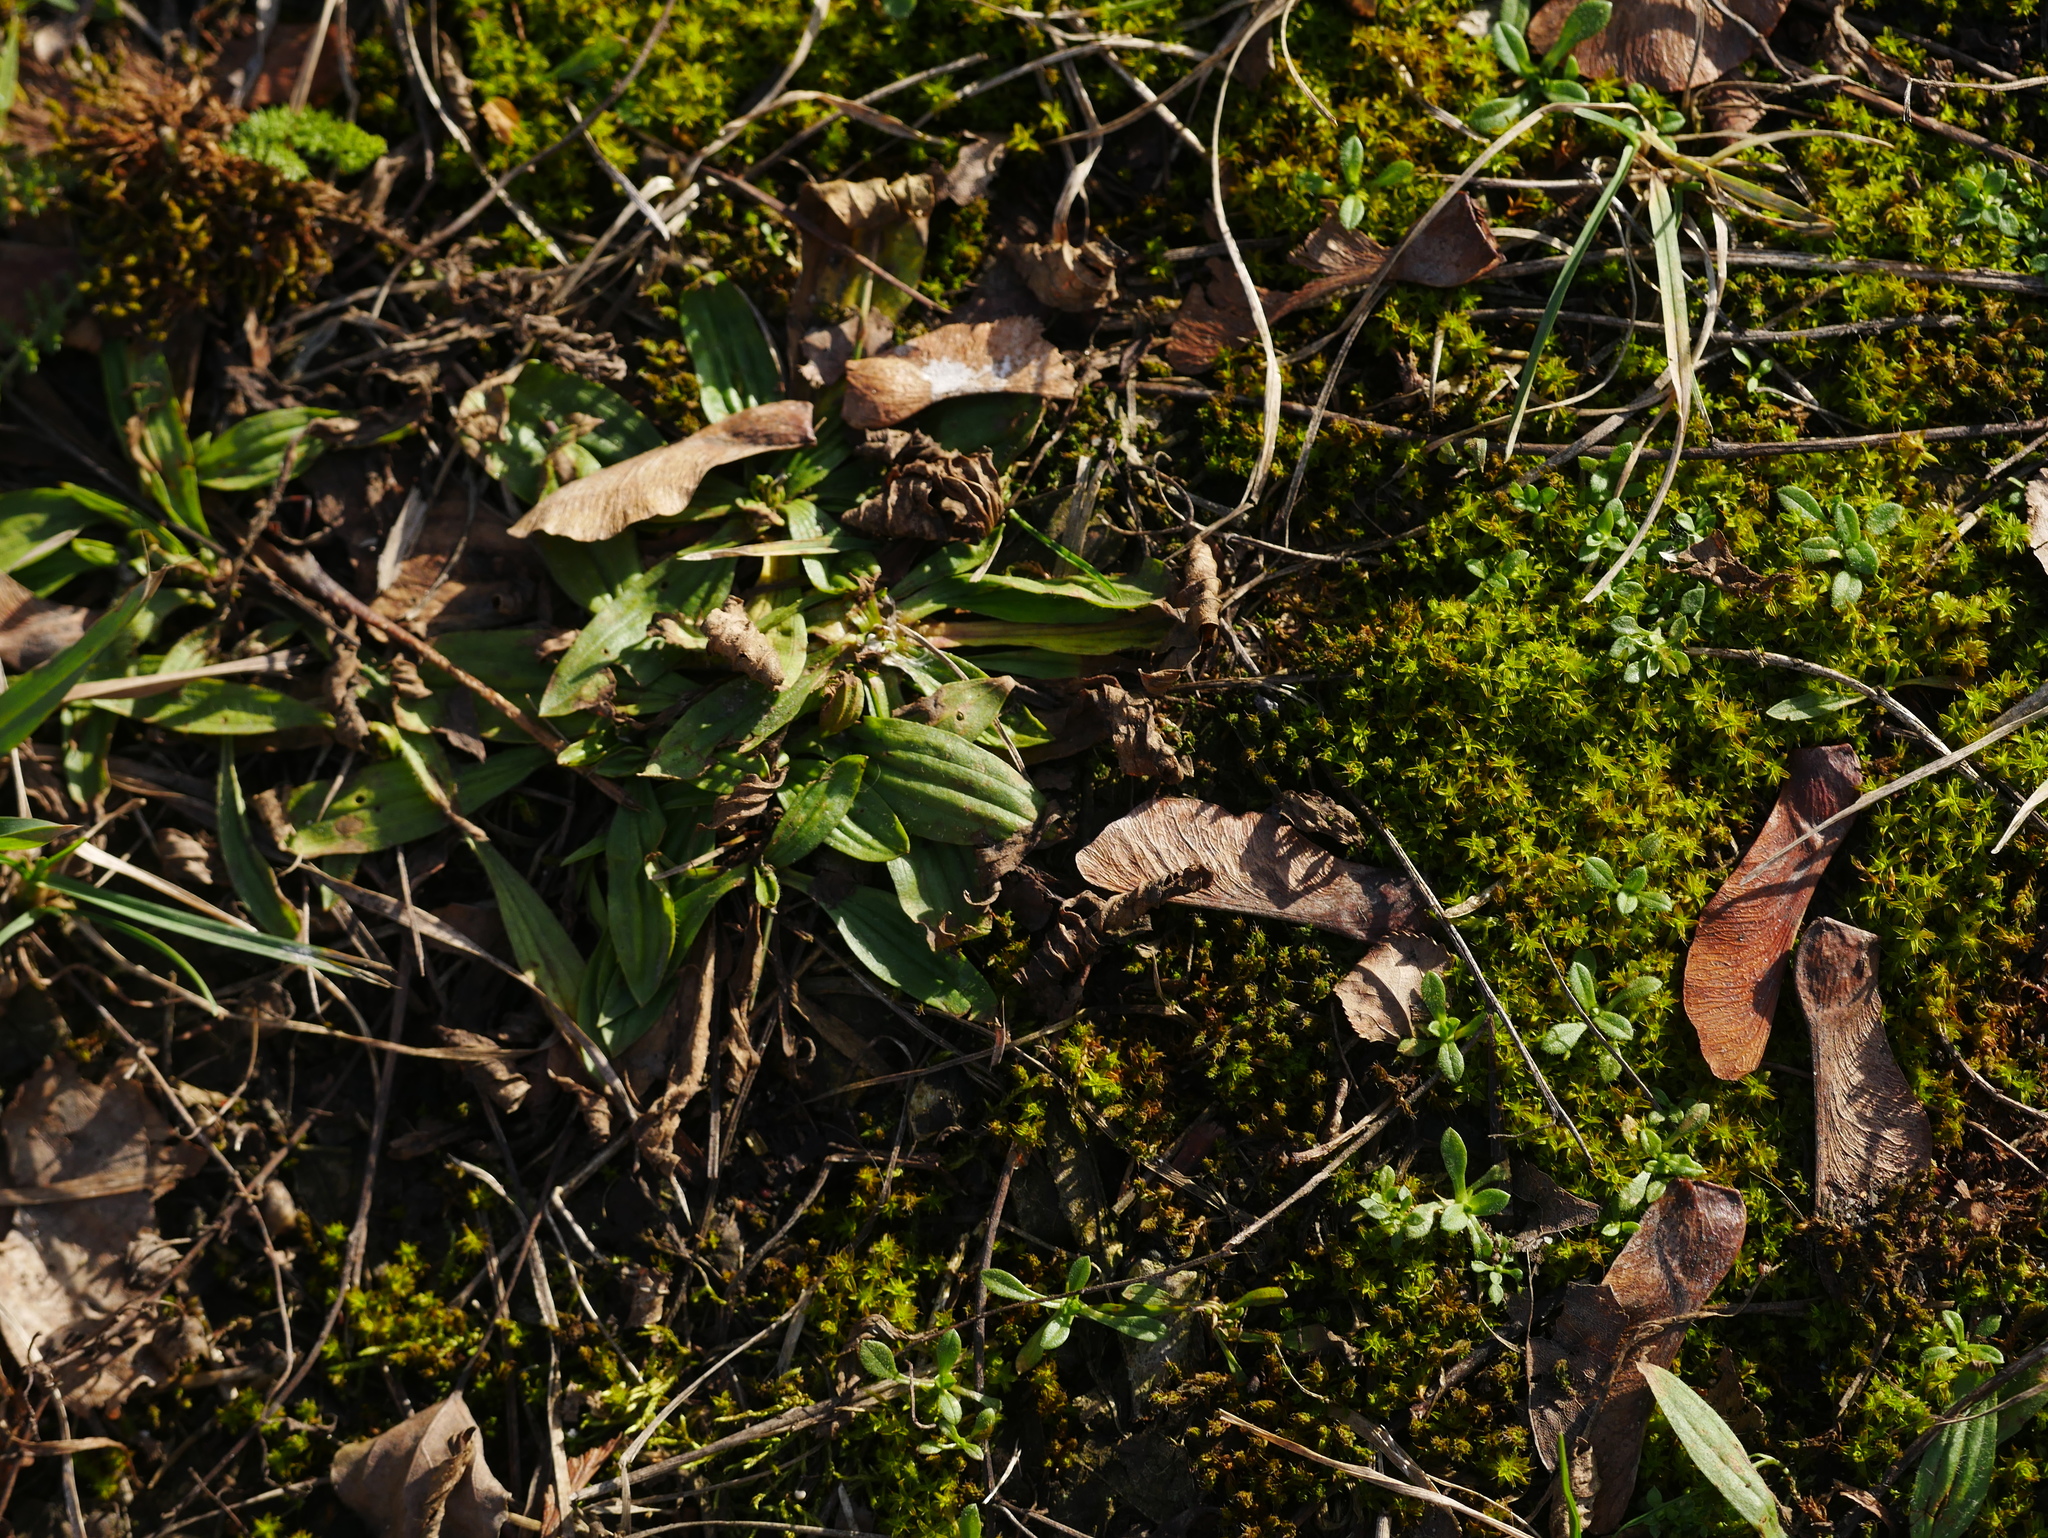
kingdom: Plantae
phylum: Tracheophyta
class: Magnoliopsida
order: Lamiales
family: Plantaginaceae
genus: Plantago
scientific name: Plantago lanceolata
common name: Ribwort plantain
